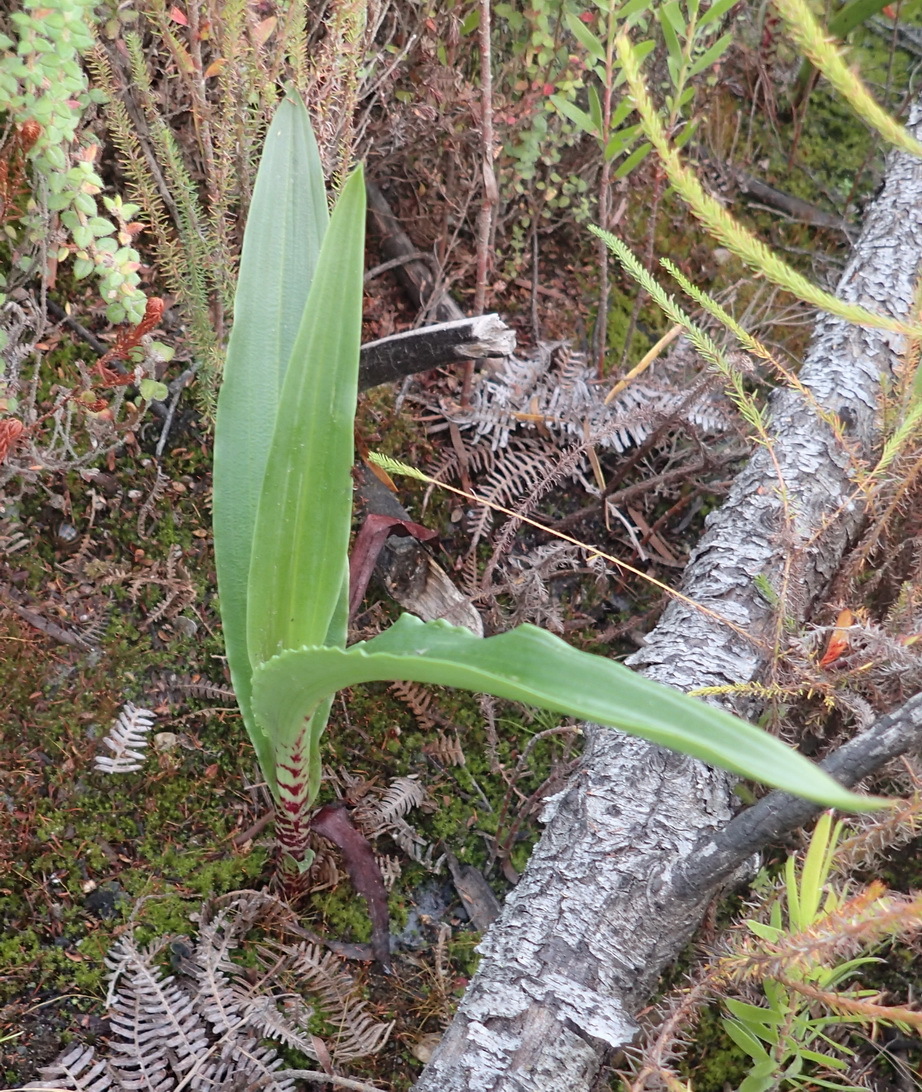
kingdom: Plantae
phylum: Tracheophyta
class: Liliopsida
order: Asparagales
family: Orchidaceae
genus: Disa
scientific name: Disa cornuta
